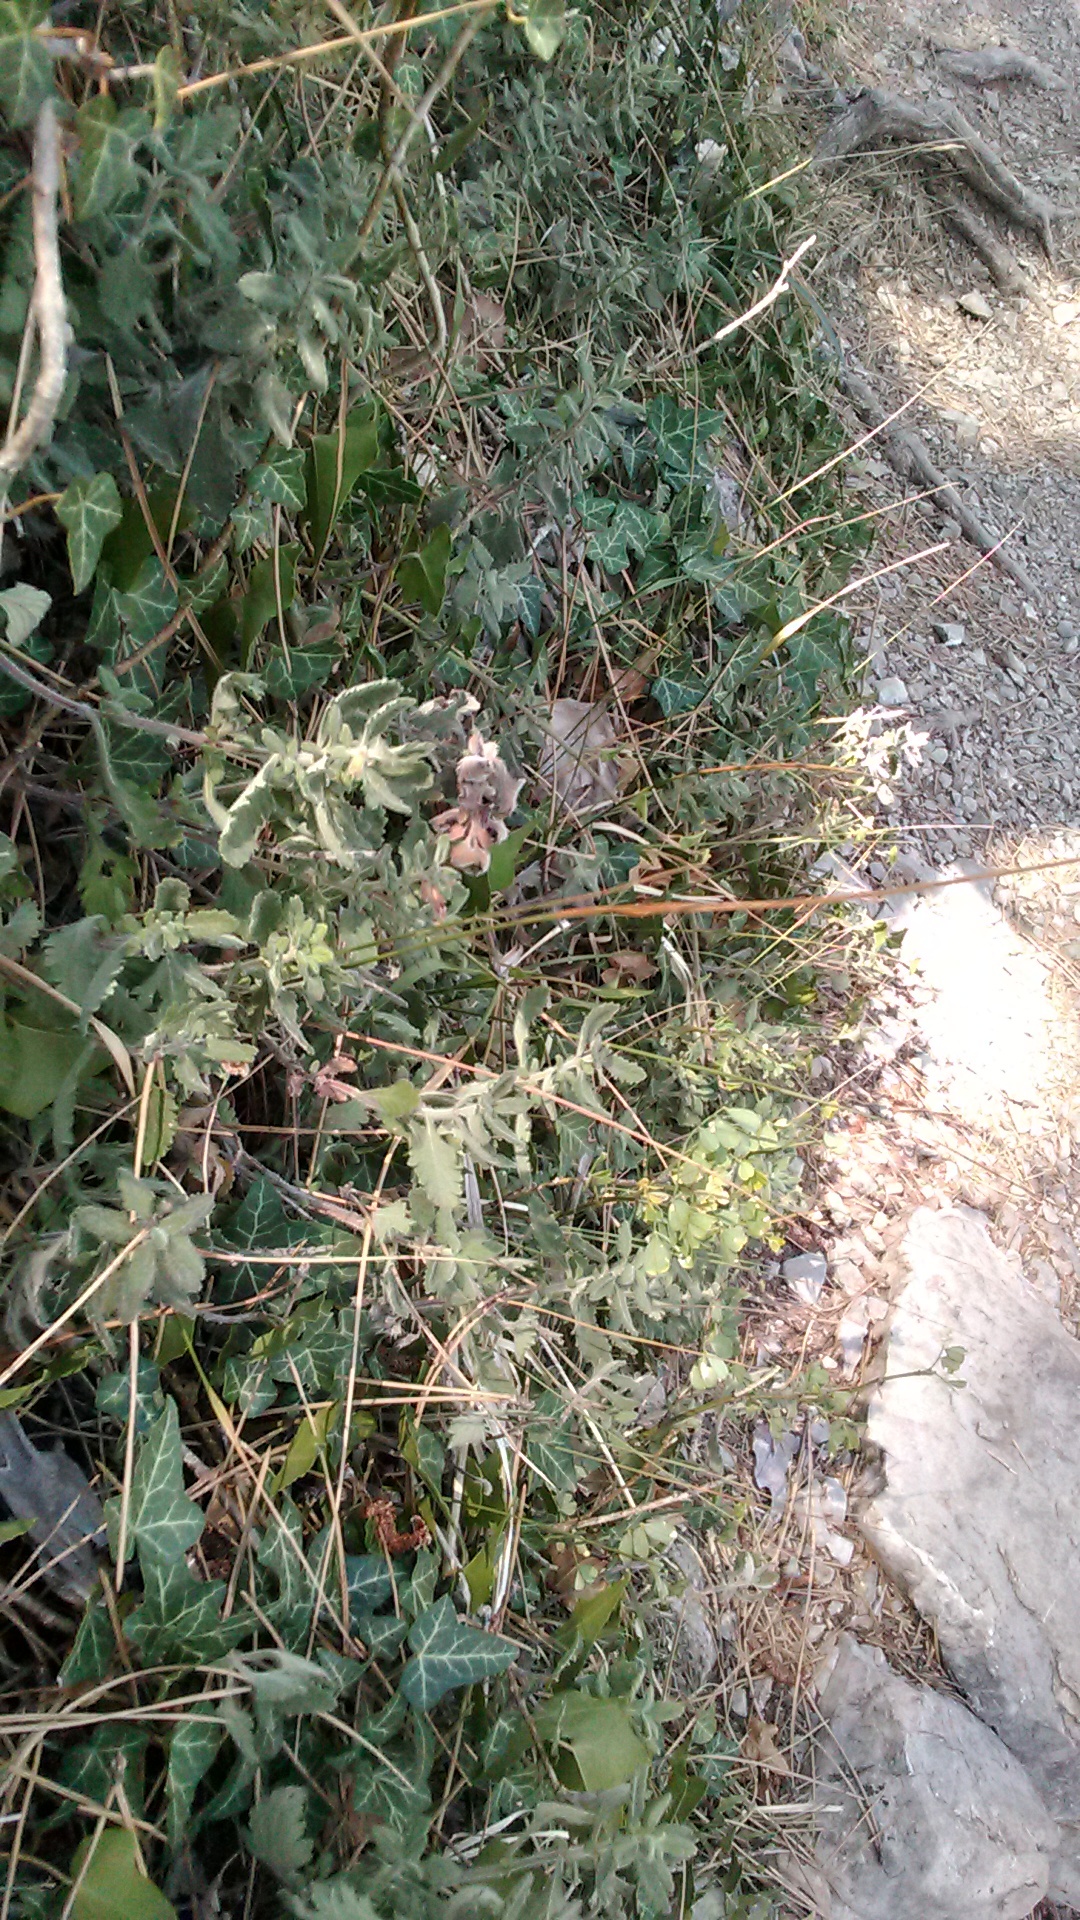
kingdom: Plantae
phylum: Tracheophyta
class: Magnoliopsida
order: Lamiales
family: Lamiaceae
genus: Teucrium
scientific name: Teucrium chamaedrys
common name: Wall germander
